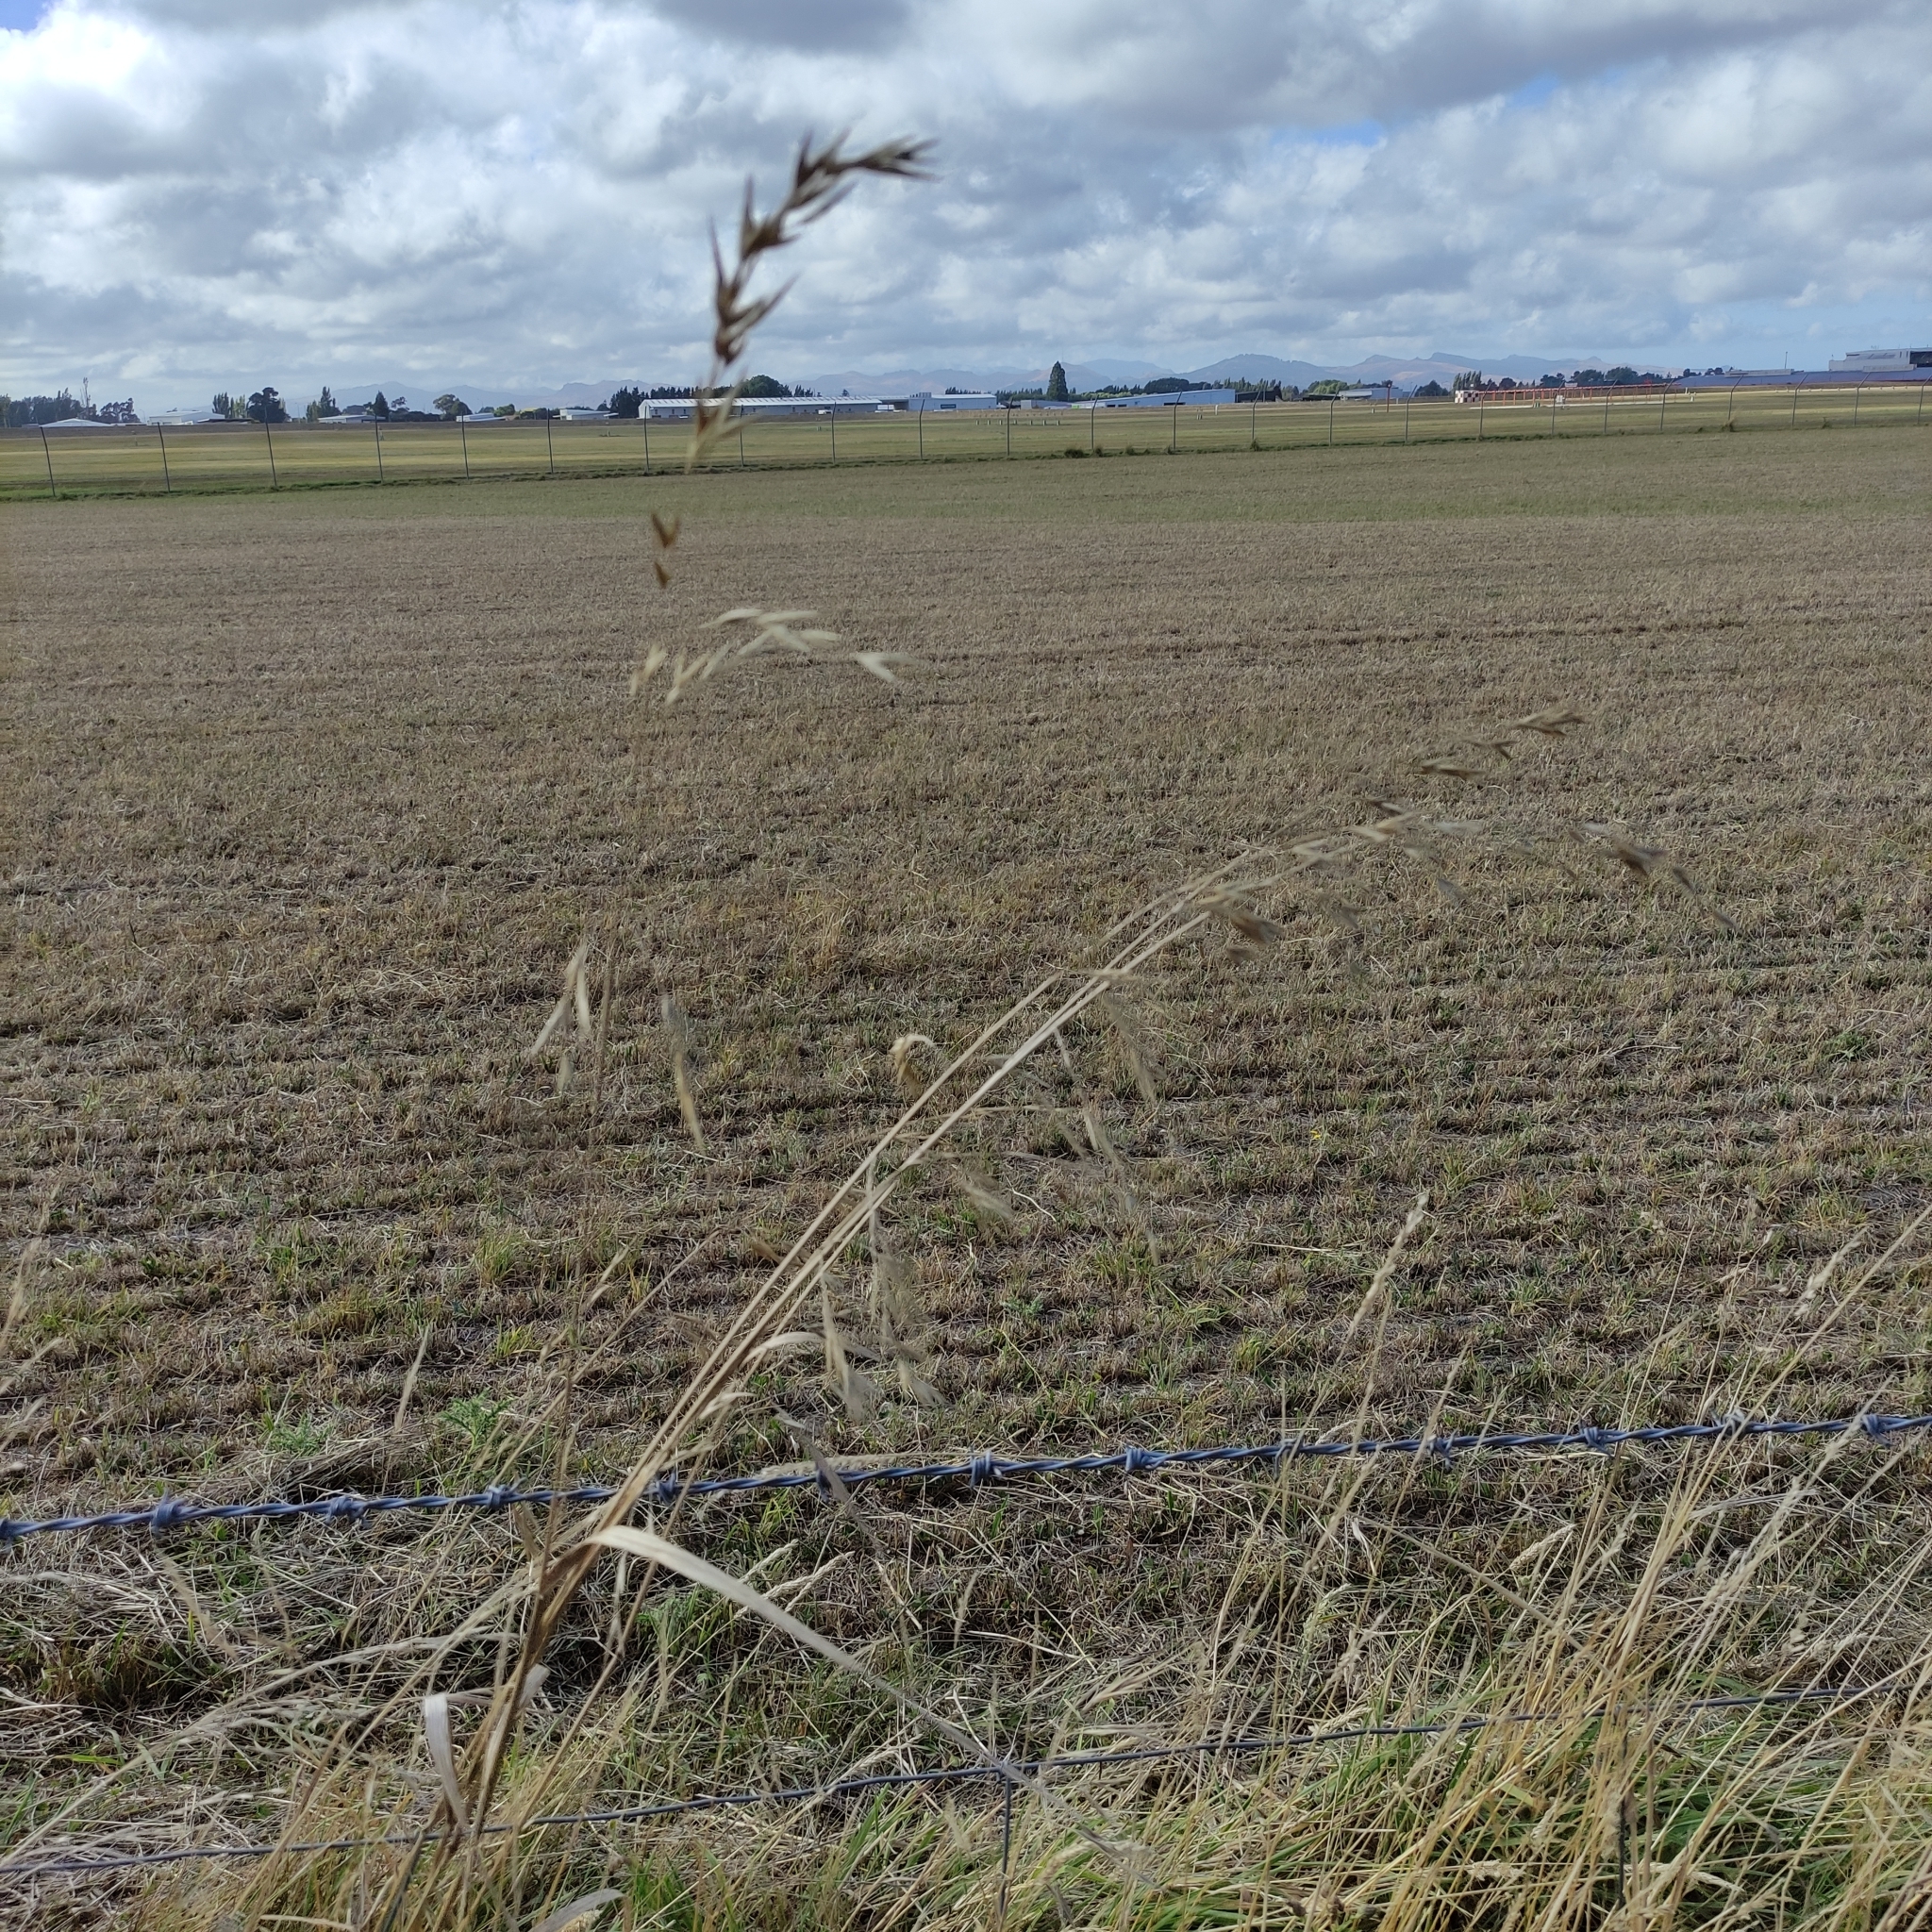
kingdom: Plantae
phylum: Tracheophyta
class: Liliopsida
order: Poales
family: Poaceae
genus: Bromus
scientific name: Bromus catharticus
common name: Rescuegrass
